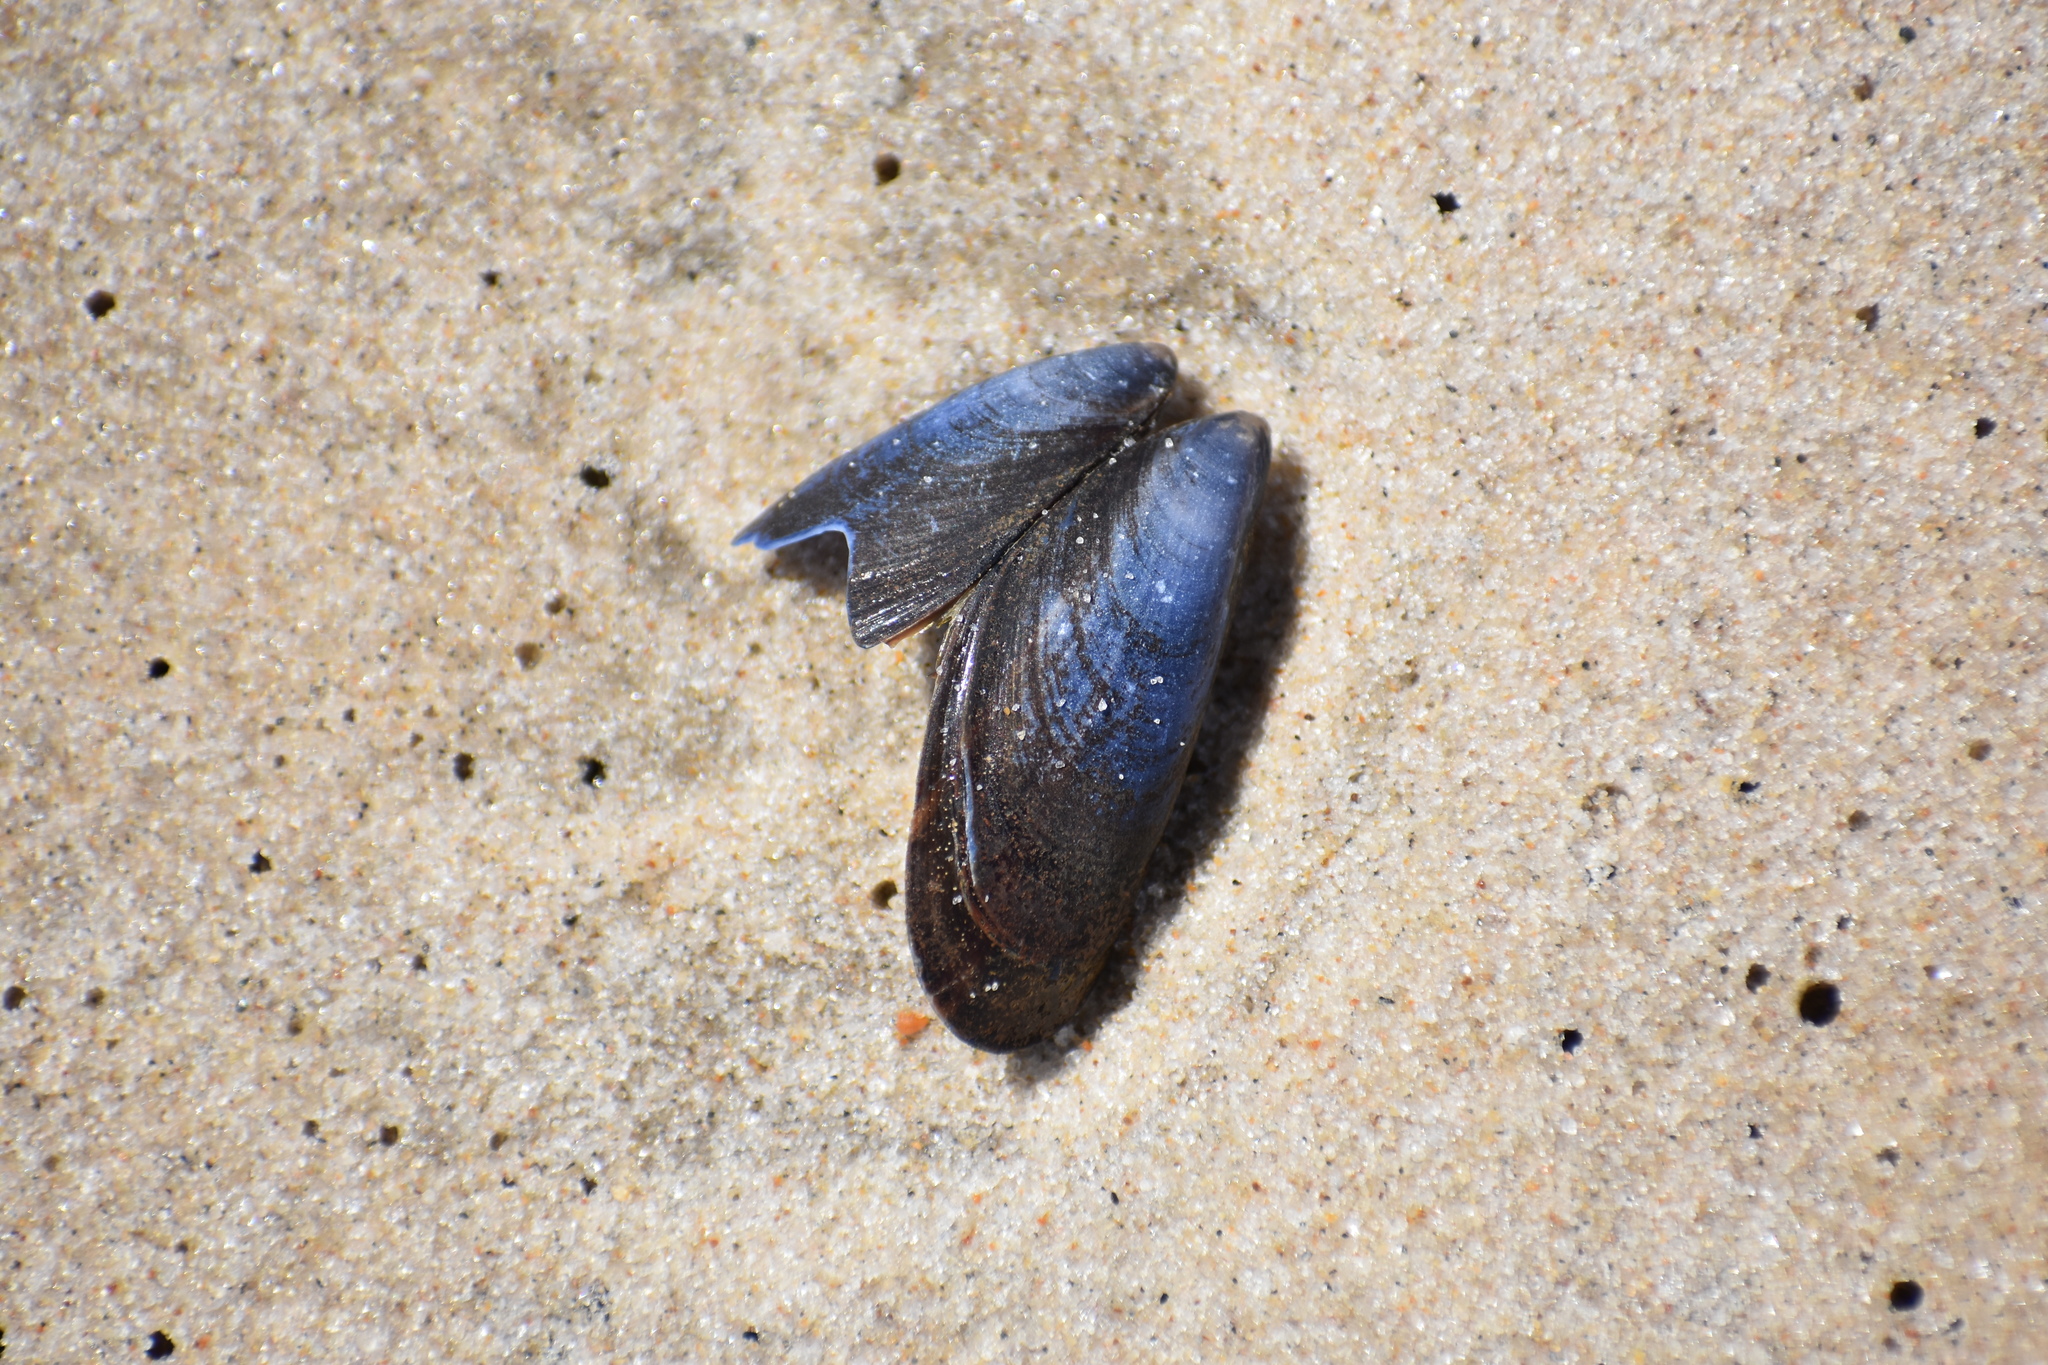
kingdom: Animalia
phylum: Mollusca
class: Bivalvia
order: Mytilida
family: Mytilidae
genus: Mytilus
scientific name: Mytilus edulis
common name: Blue mussel
